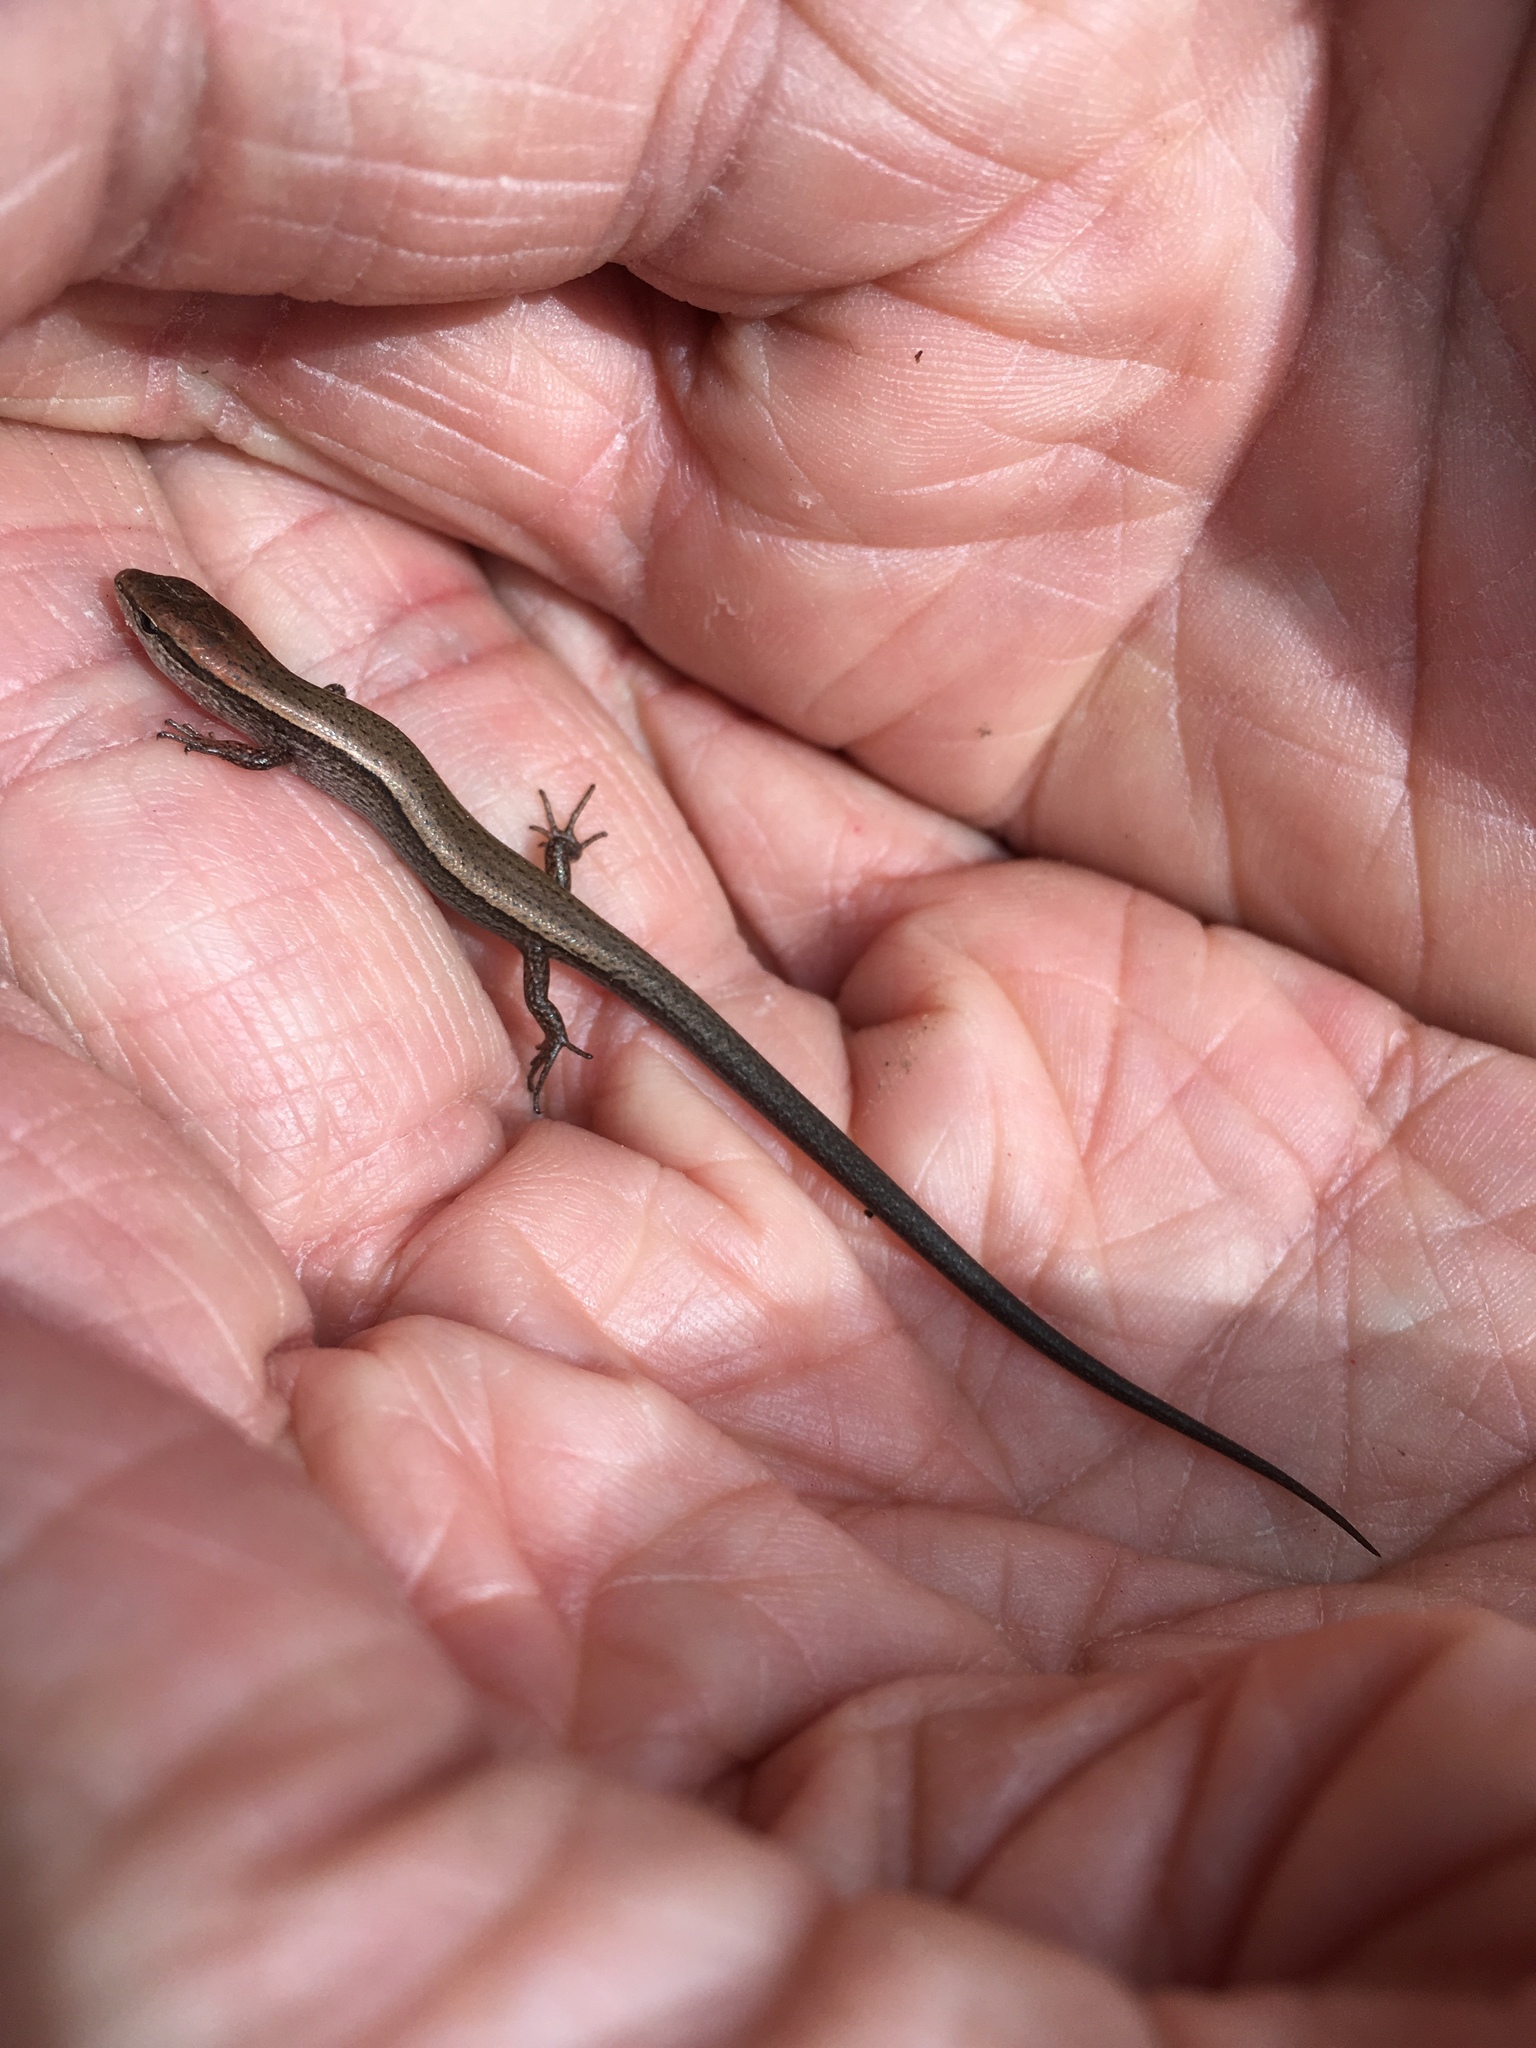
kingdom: Animalia
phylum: Chordata
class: Squamata
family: Scincidae
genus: Scincella
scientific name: Scincella lateralis
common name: Ground skink
